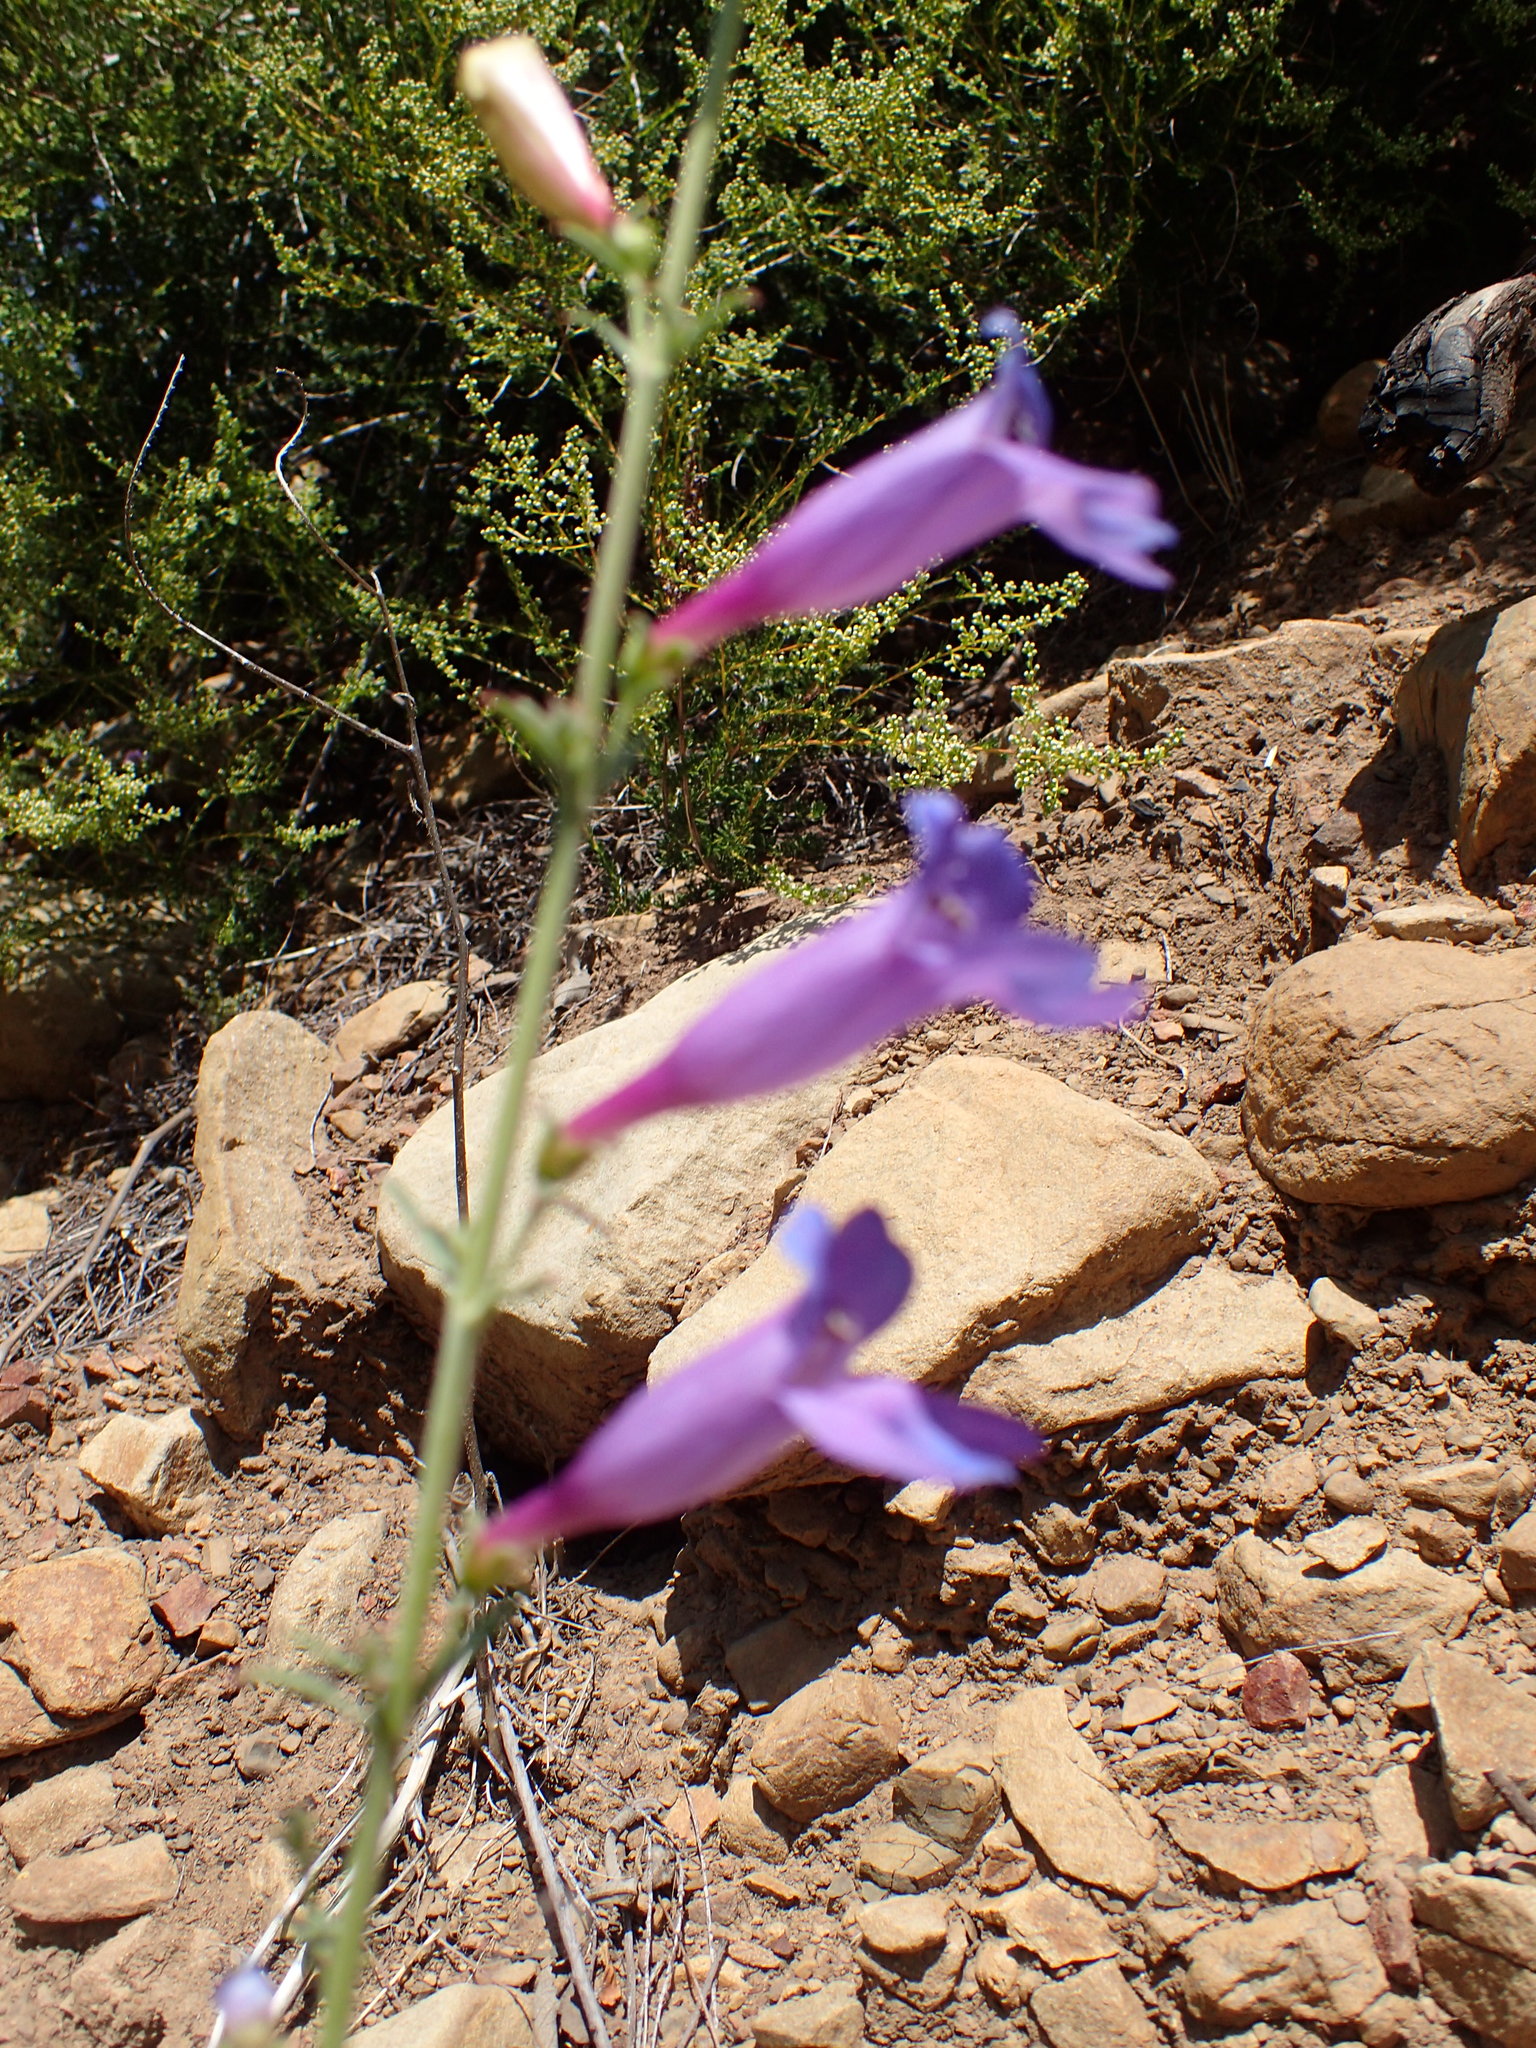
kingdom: Plantae
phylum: Tracheophyta
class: Magnoliopsida
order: Lamiales
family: Plantaginaceae
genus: Penstemon
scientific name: Penstemon heterophyllus
